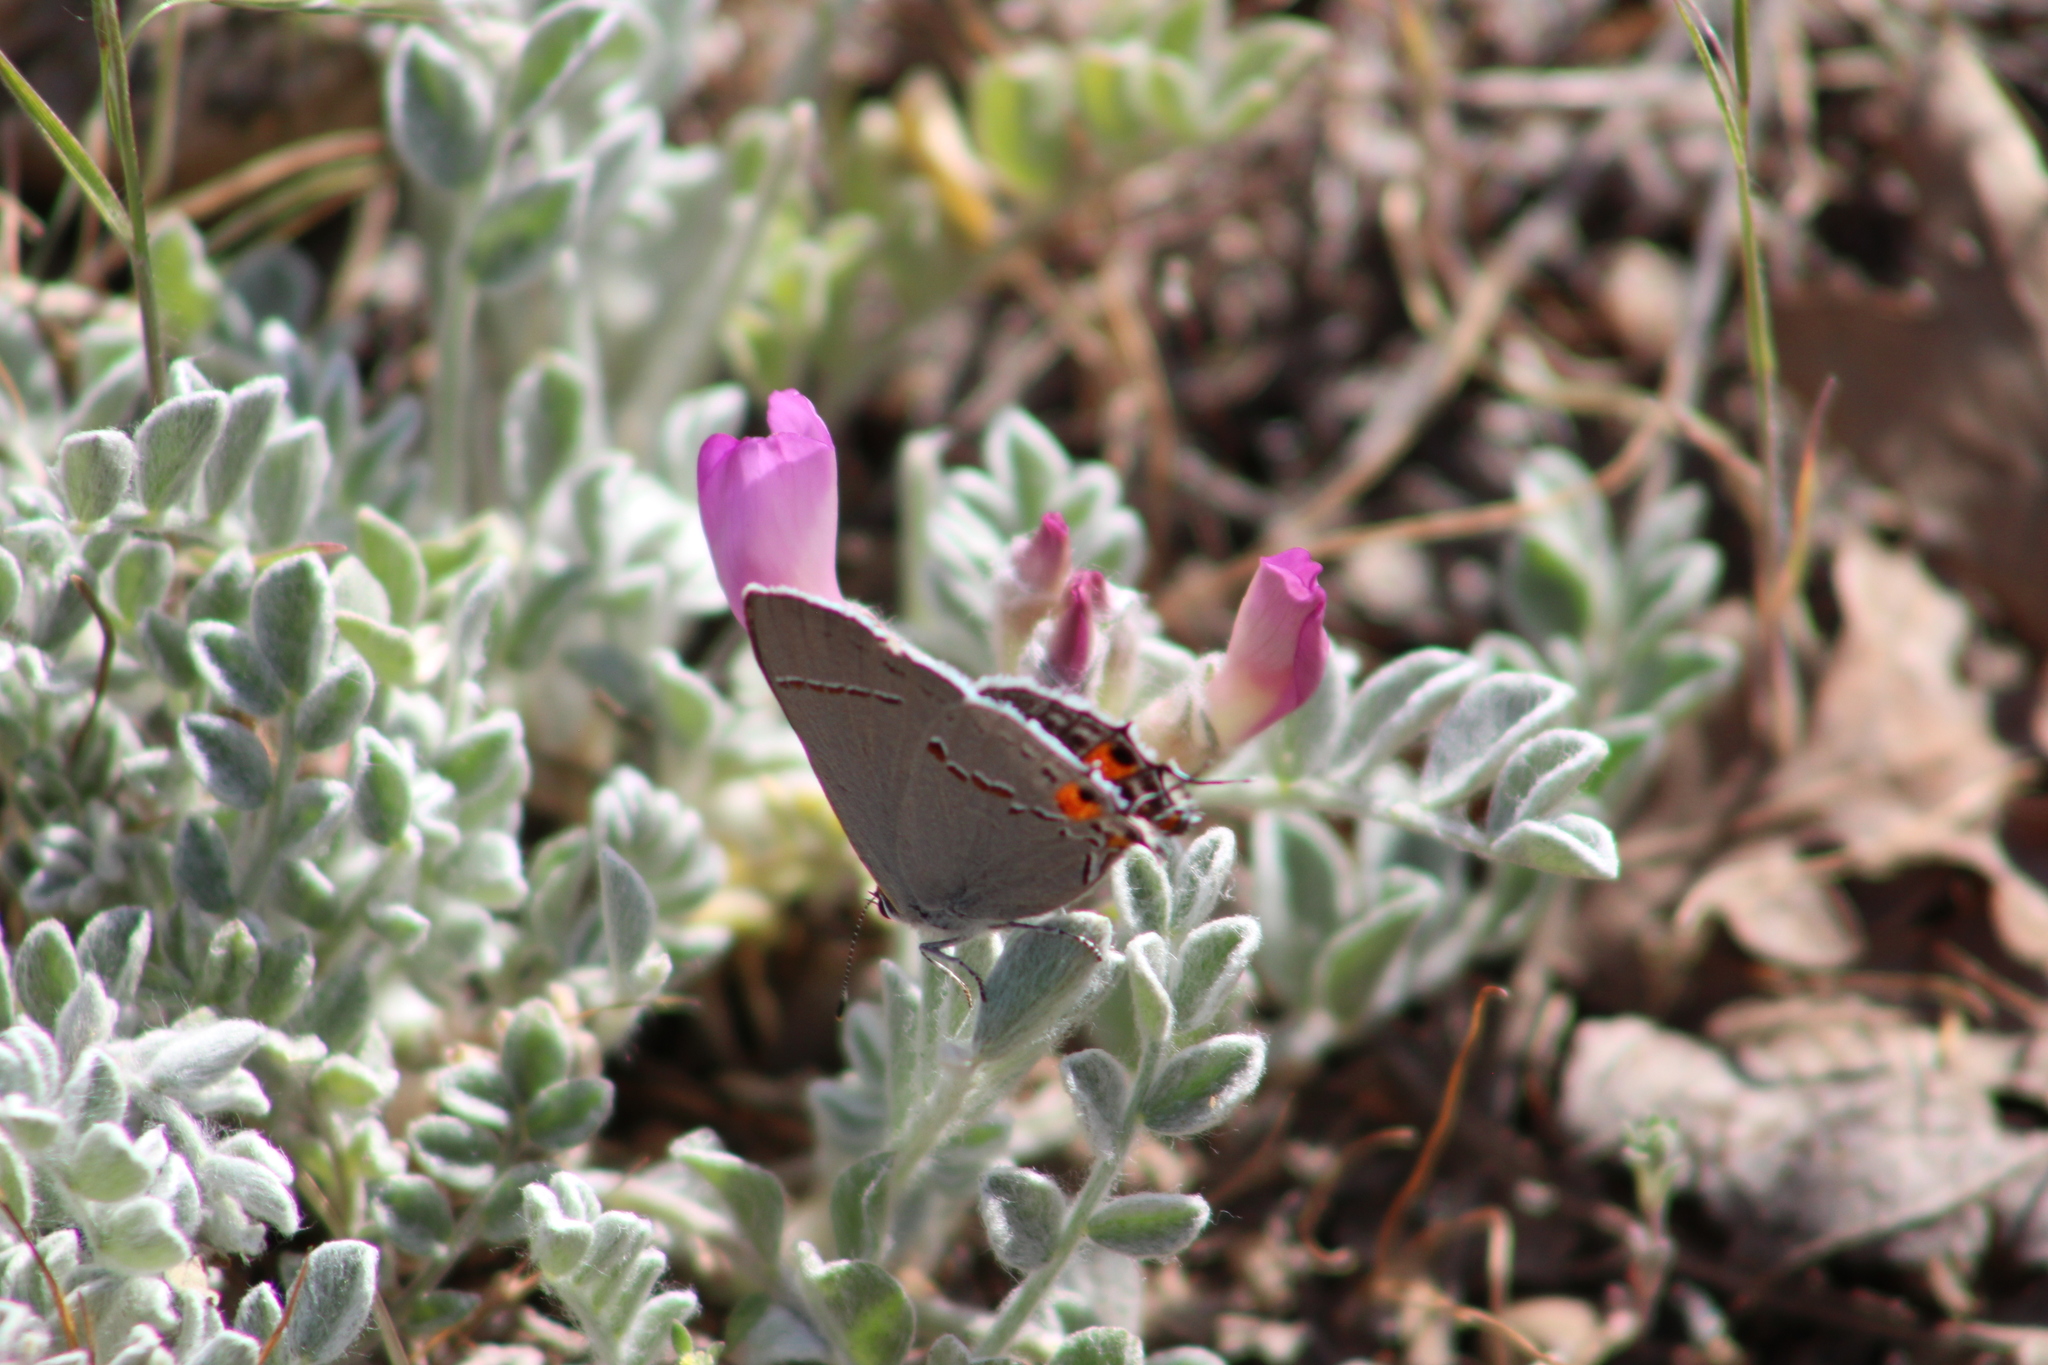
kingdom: Animalia
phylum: Arthropoda
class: Insecta
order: Lepidoptera
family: Lycaenidae
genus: Strymon
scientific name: Strymon melinus
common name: Gray hairstreak
